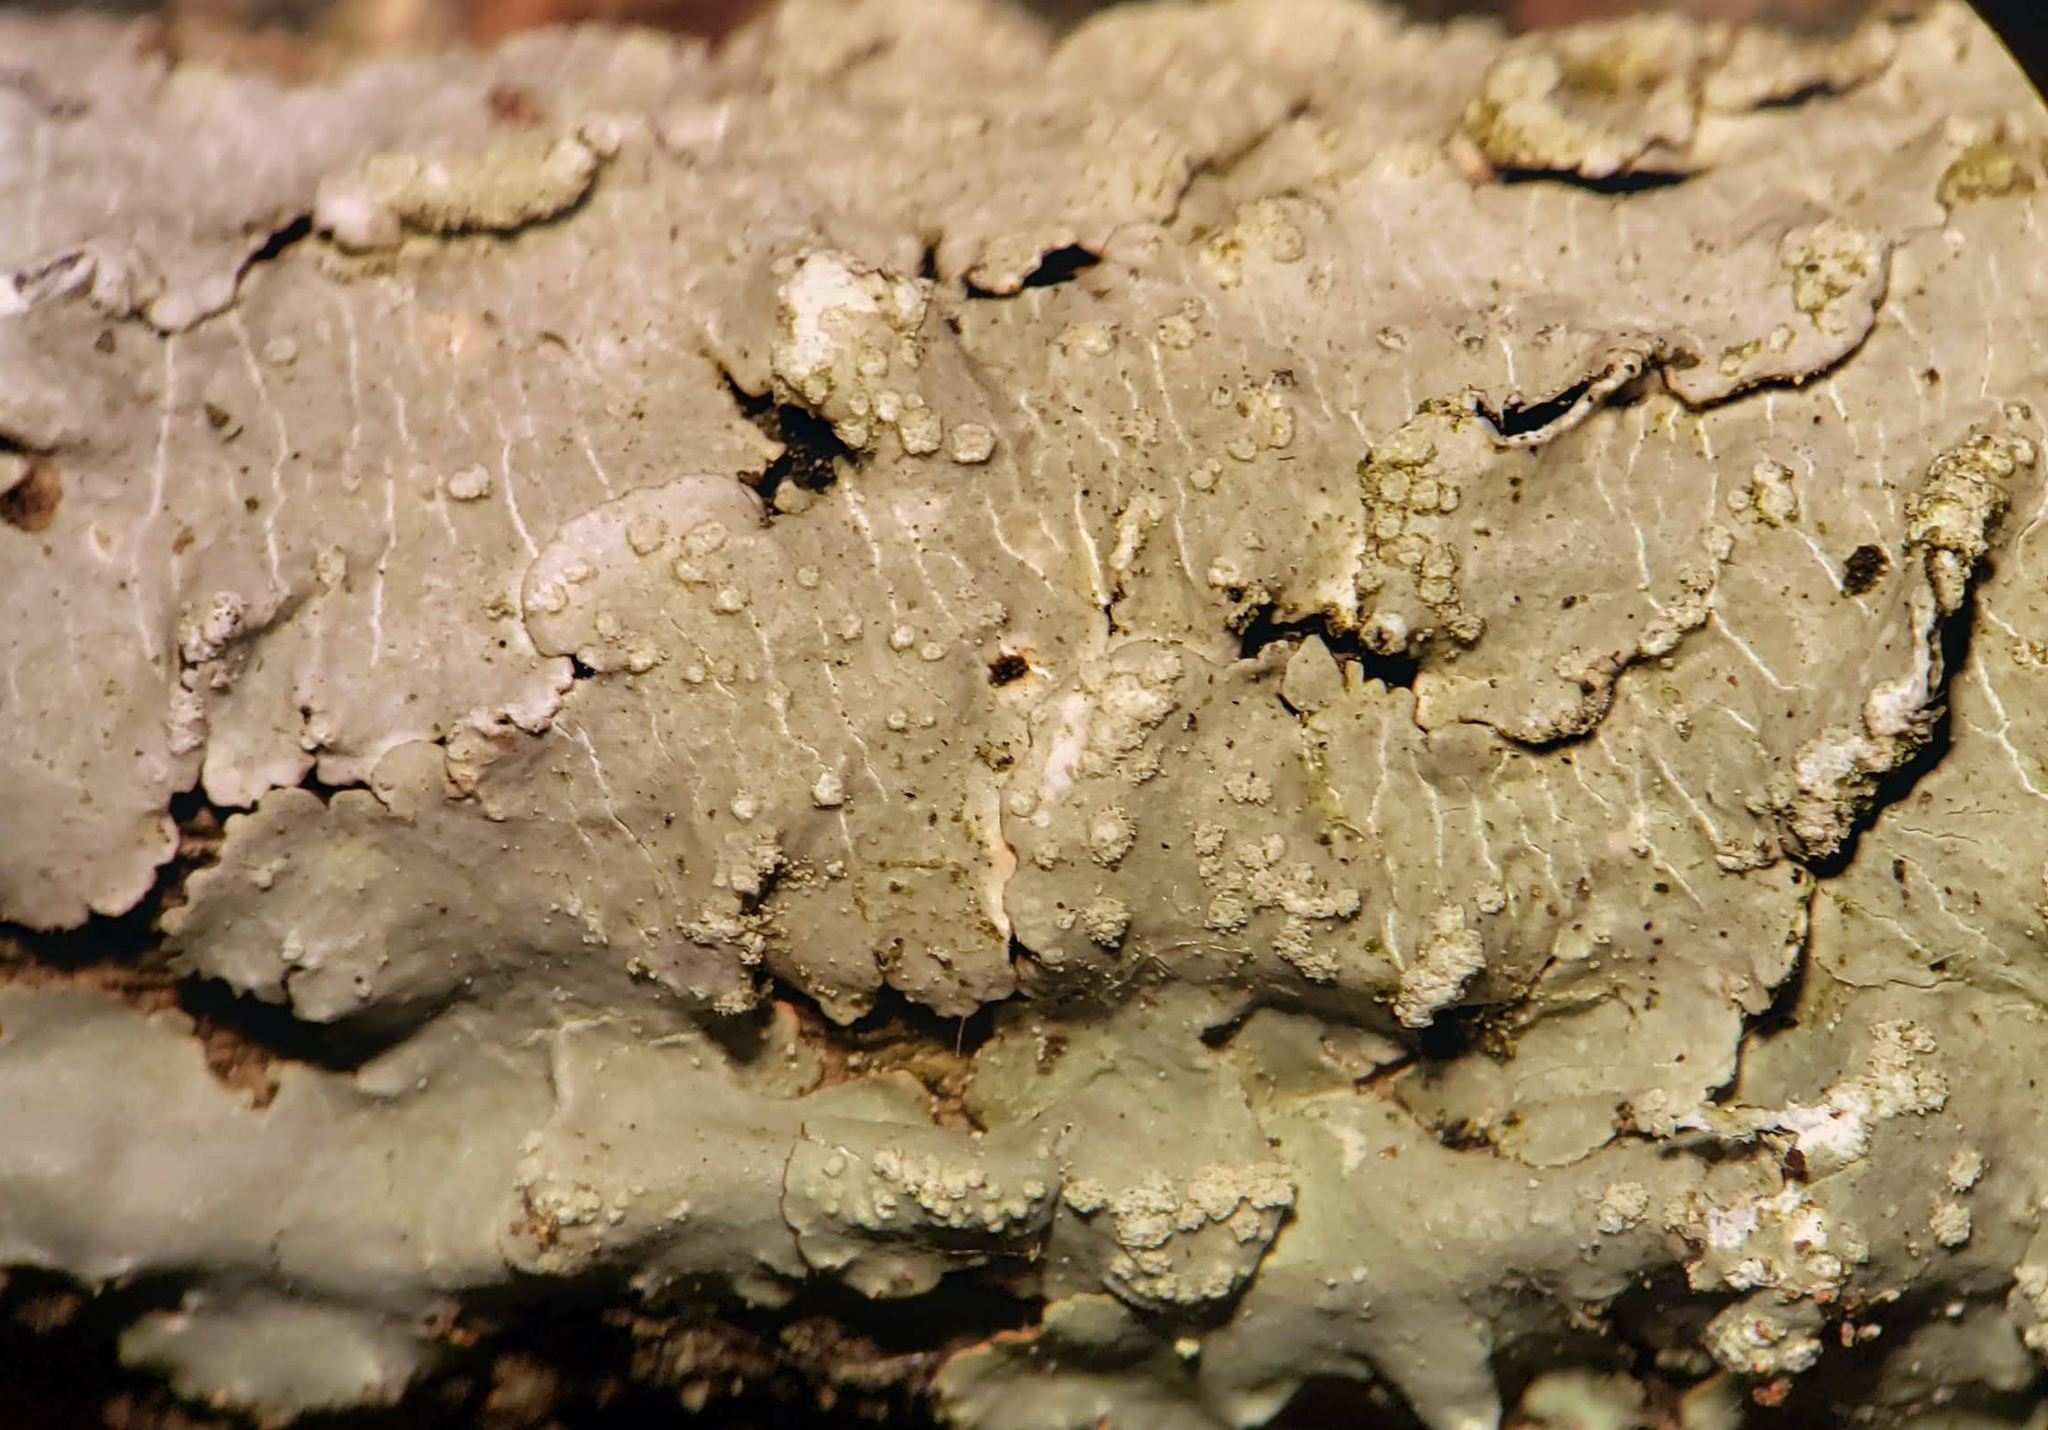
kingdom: Fungi
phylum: Ascomycota
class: Lecanoromycetes
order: Lecanorales
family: Parmeliaceae
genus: Canoparmelia
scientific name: Canoparmelia texana
